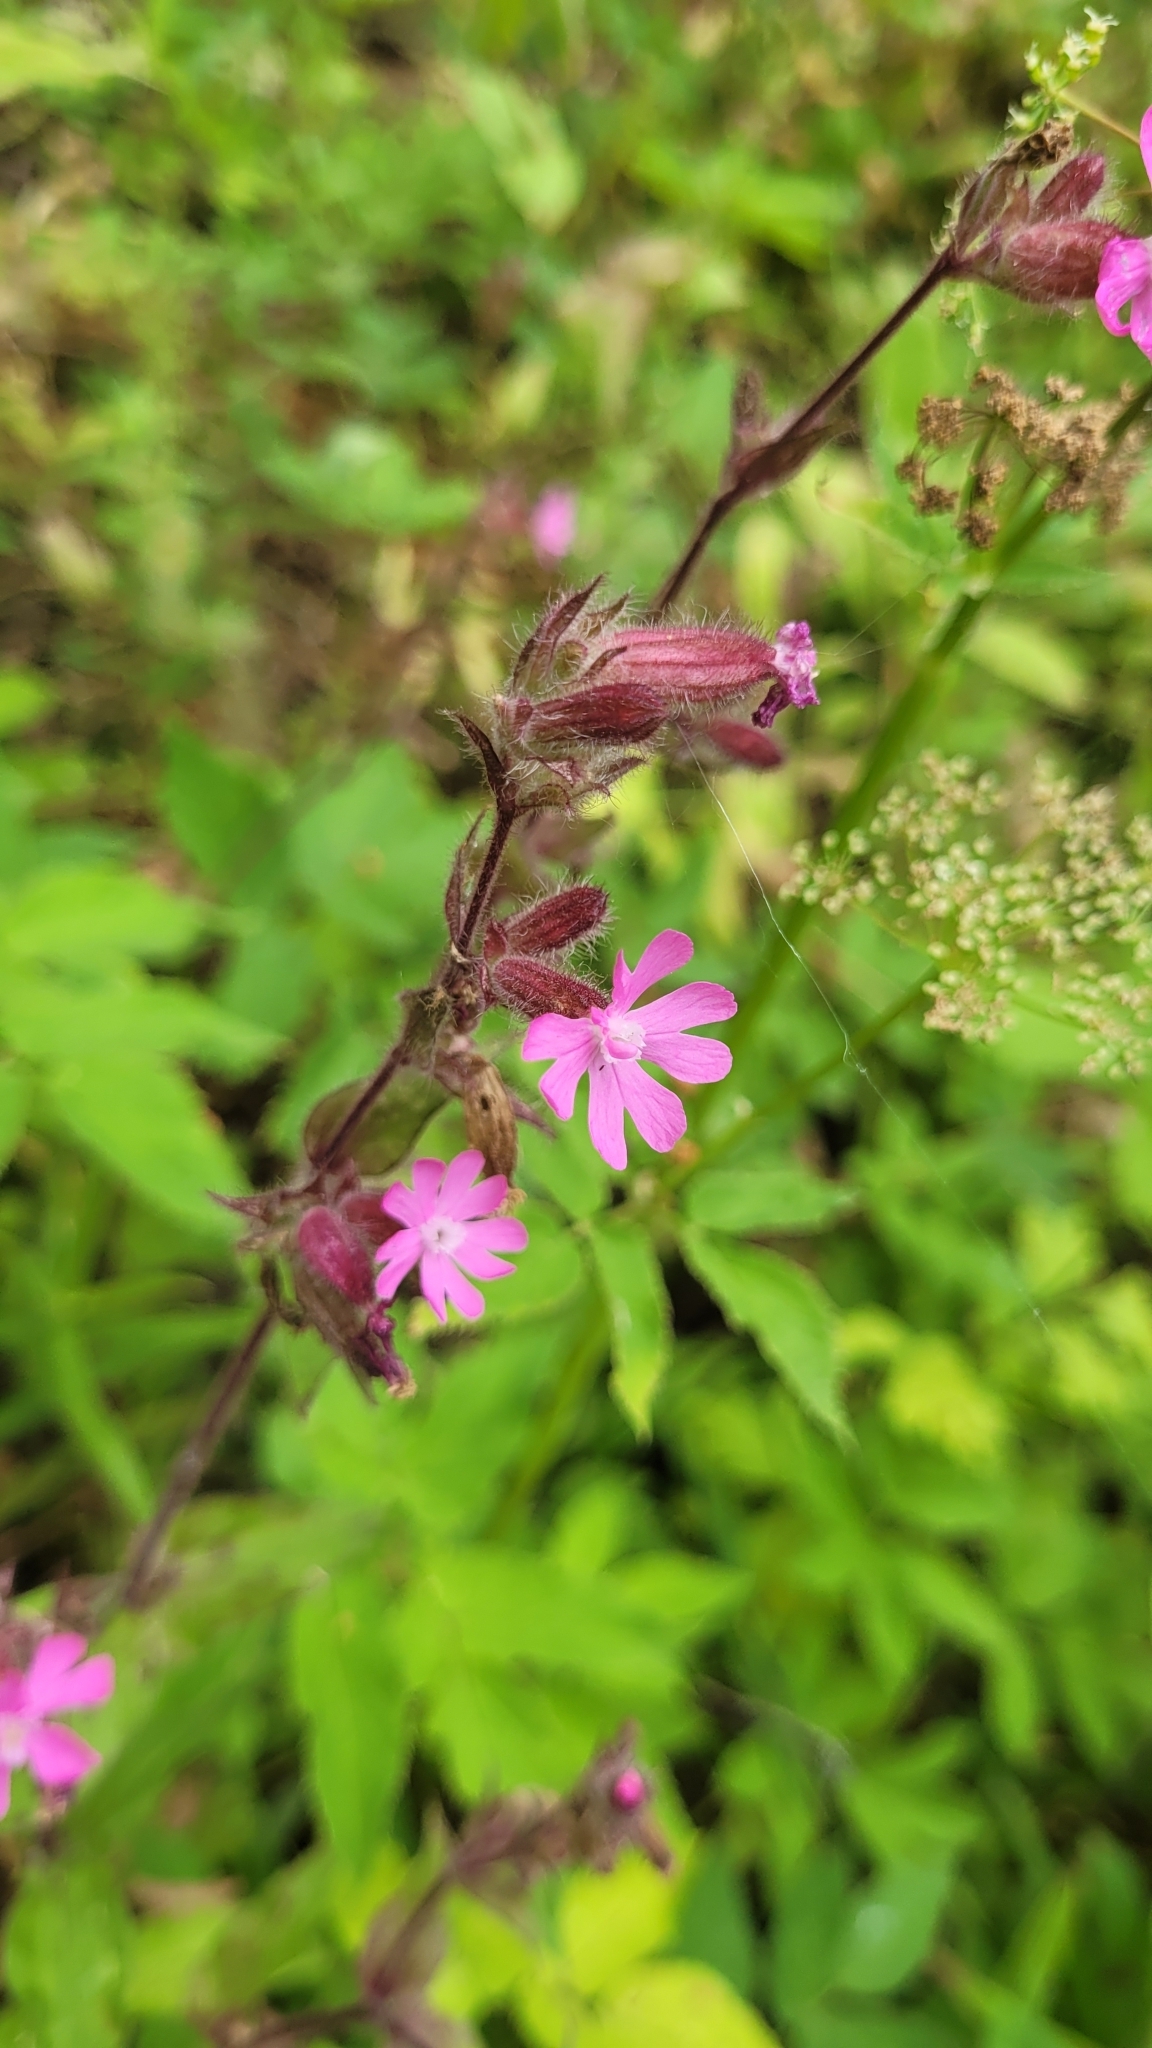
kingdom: Plantae
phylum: Tracheophyta
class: Magnoliopsida
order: Caryophyllales
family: Caryophyllaceae
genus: Silene
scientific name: Silene dioica
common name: Red campion
